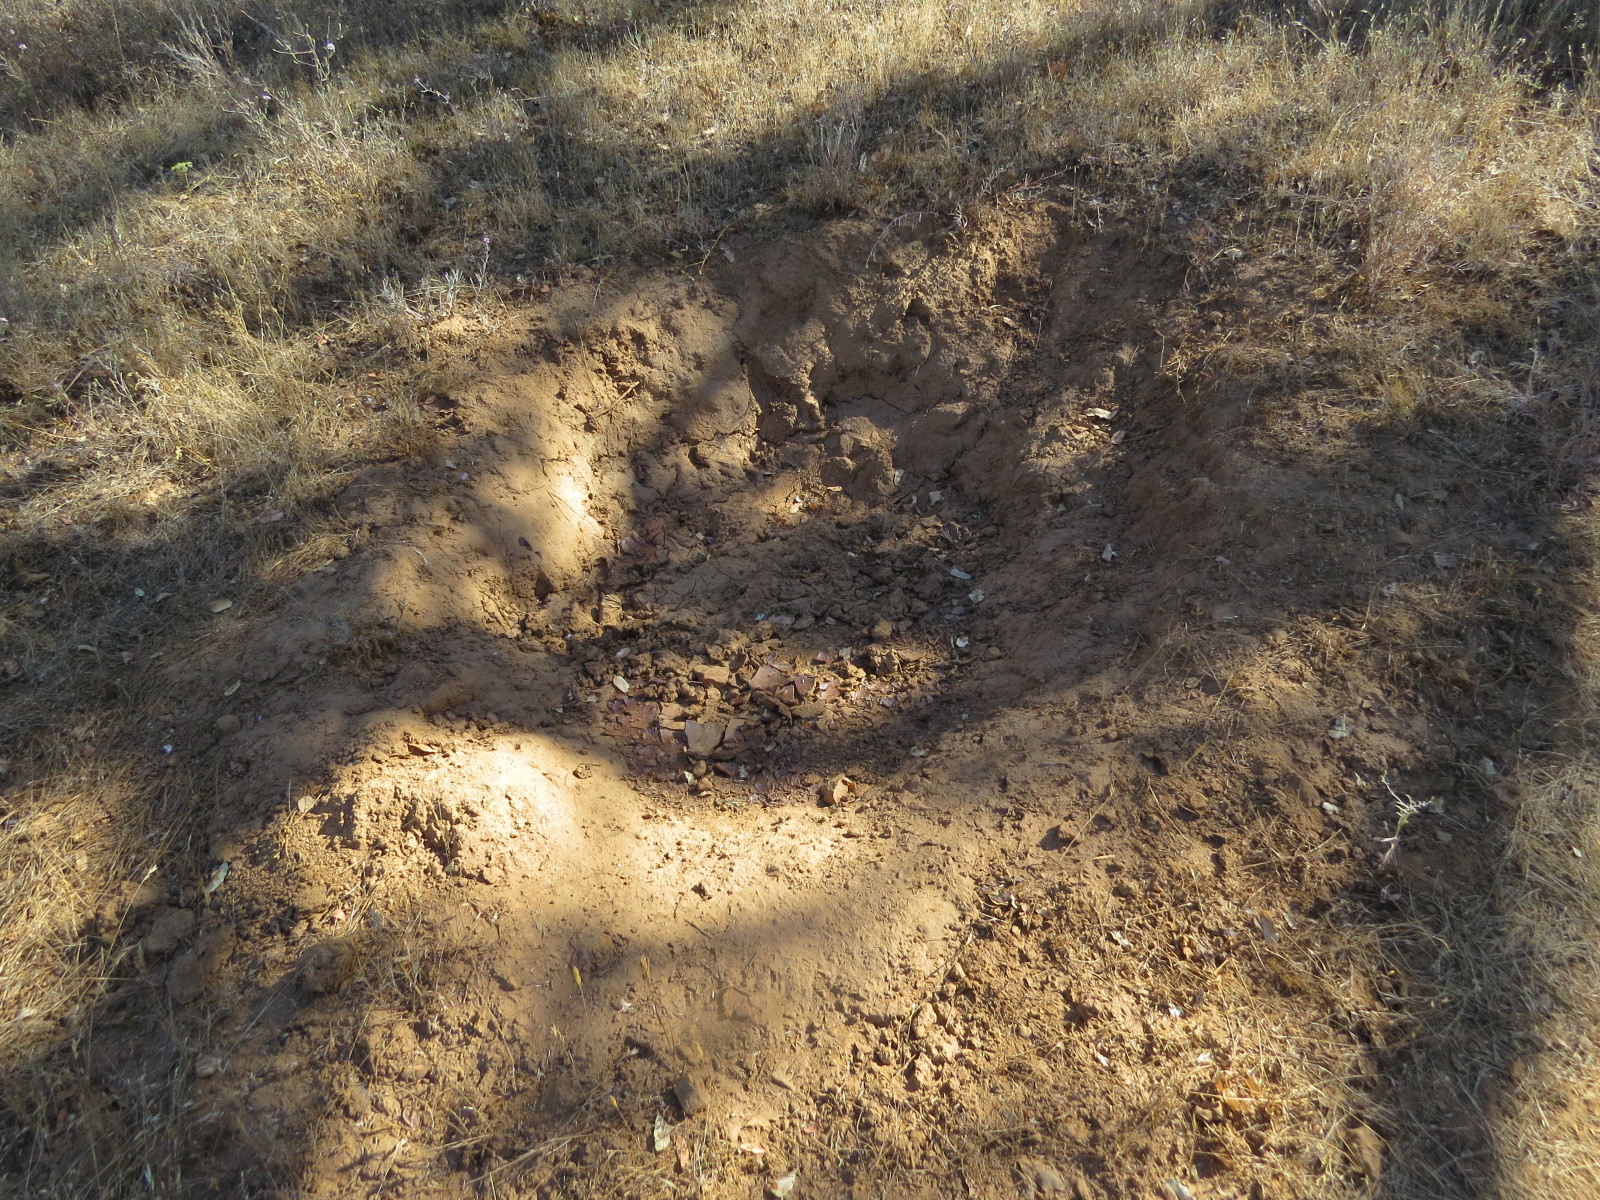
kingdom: Animalia
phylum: Chordata
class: Mammalia
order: Artiodactyla
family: Suidae
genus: Sus
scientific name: Sus scrofa
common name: Wild boar
